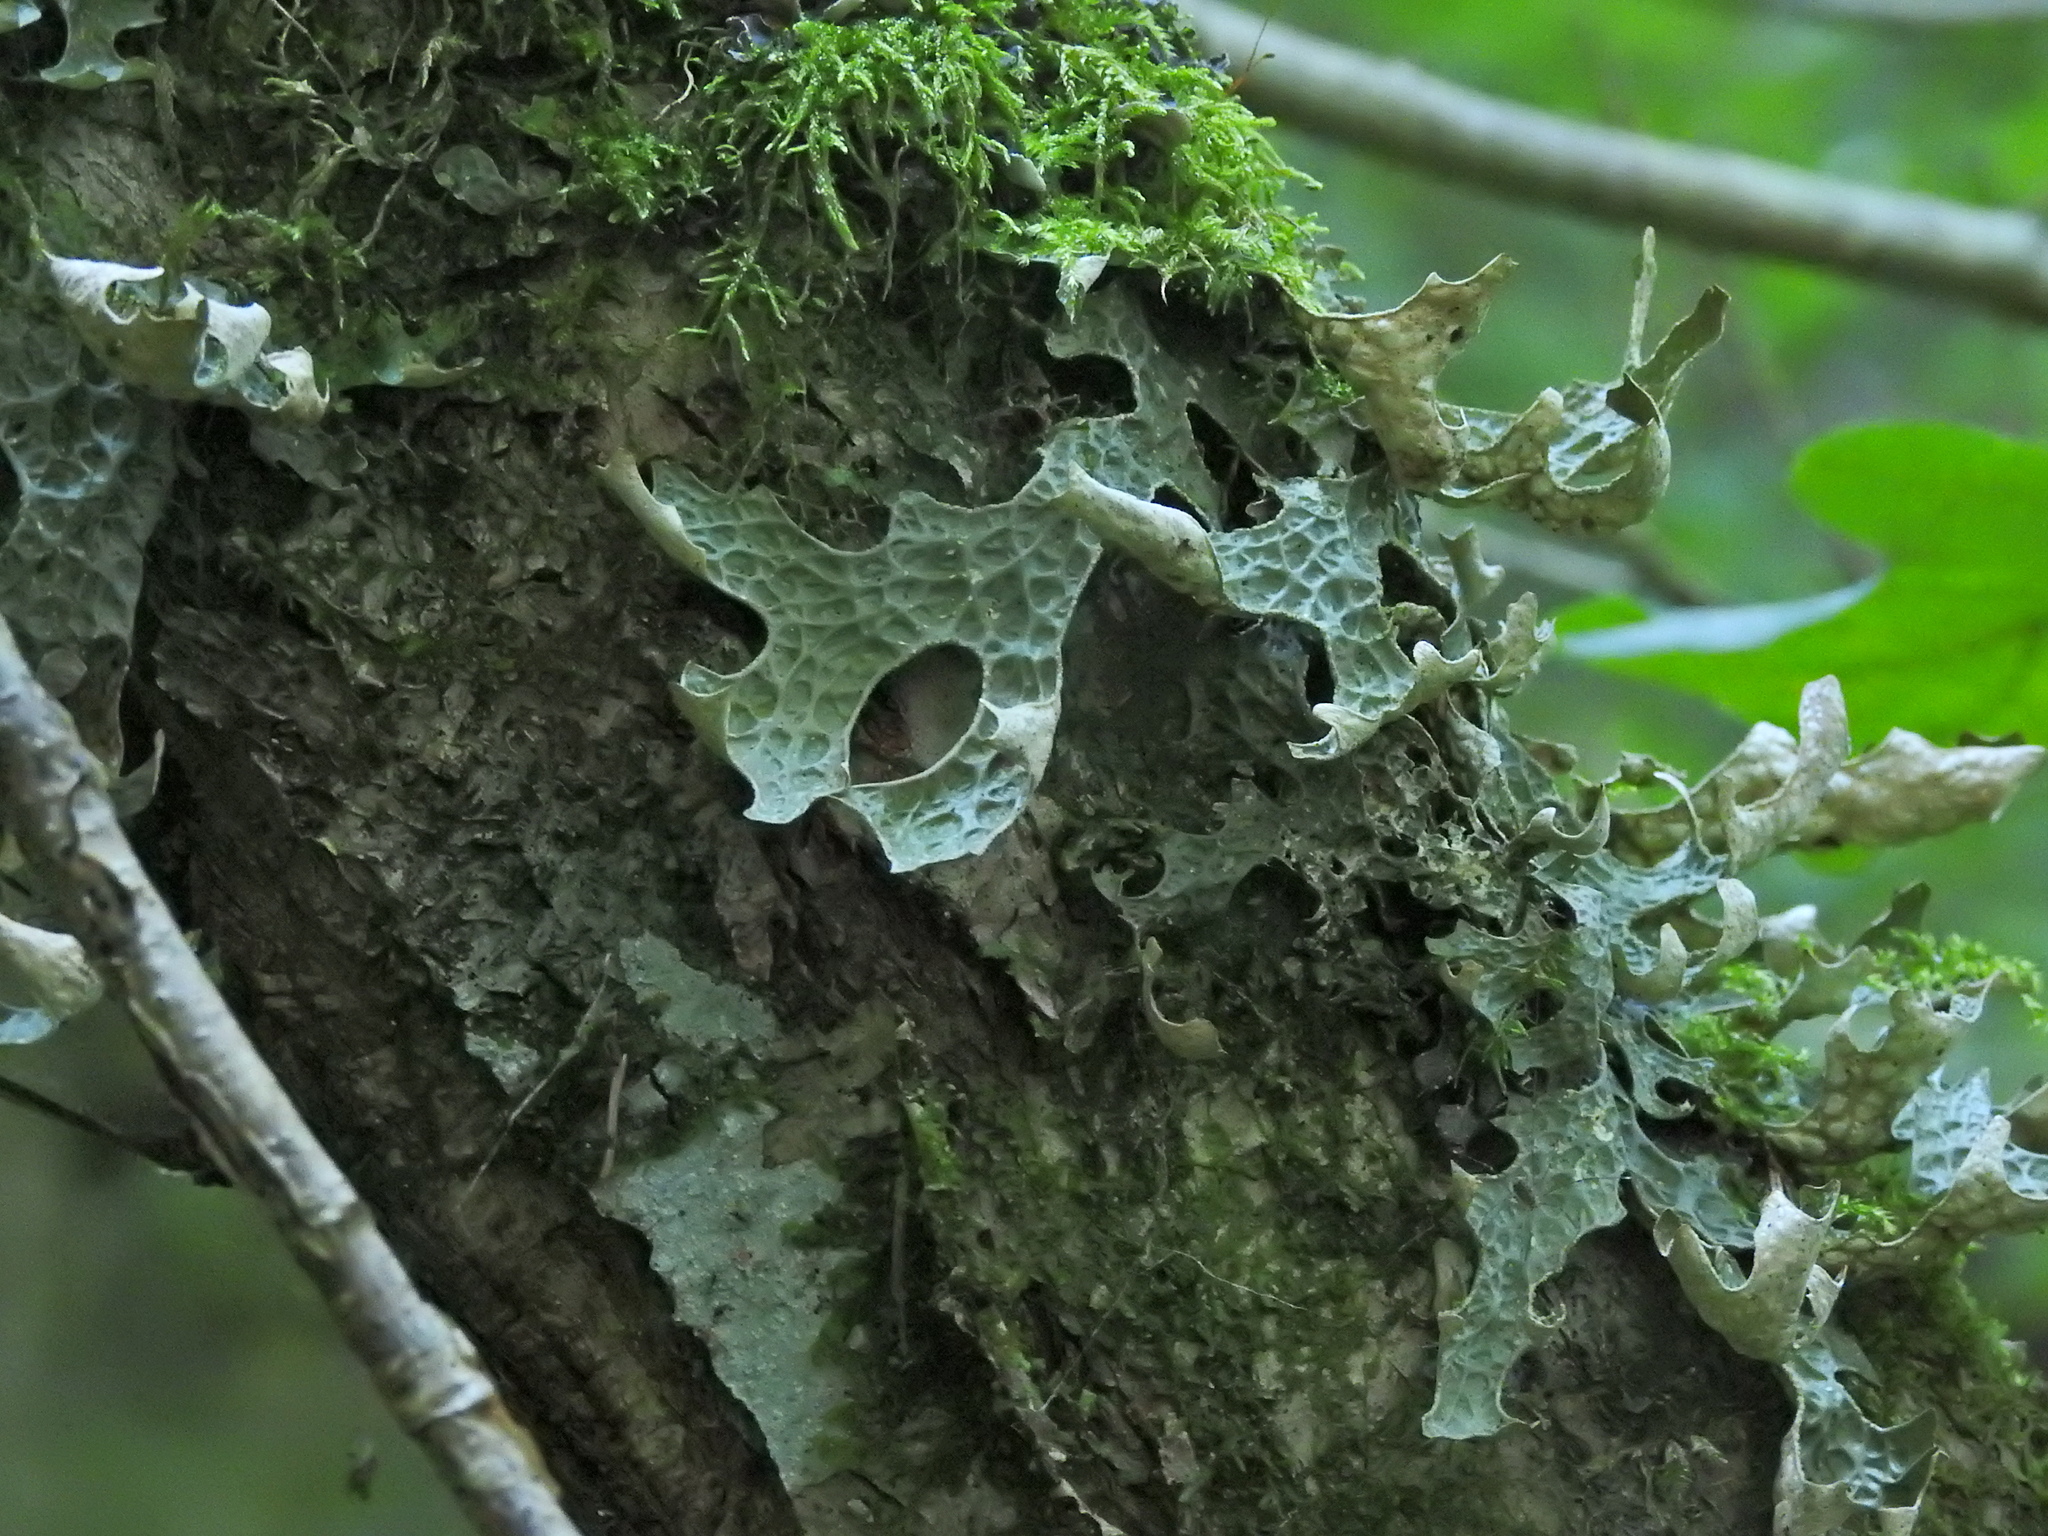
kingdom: Fungi
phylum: Ascomycota
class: Lecanoromycetes
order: Peltigerales
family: Lobariaceae
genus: Lobaria
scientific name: Lobaria pulmonaria
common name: Lungwort
